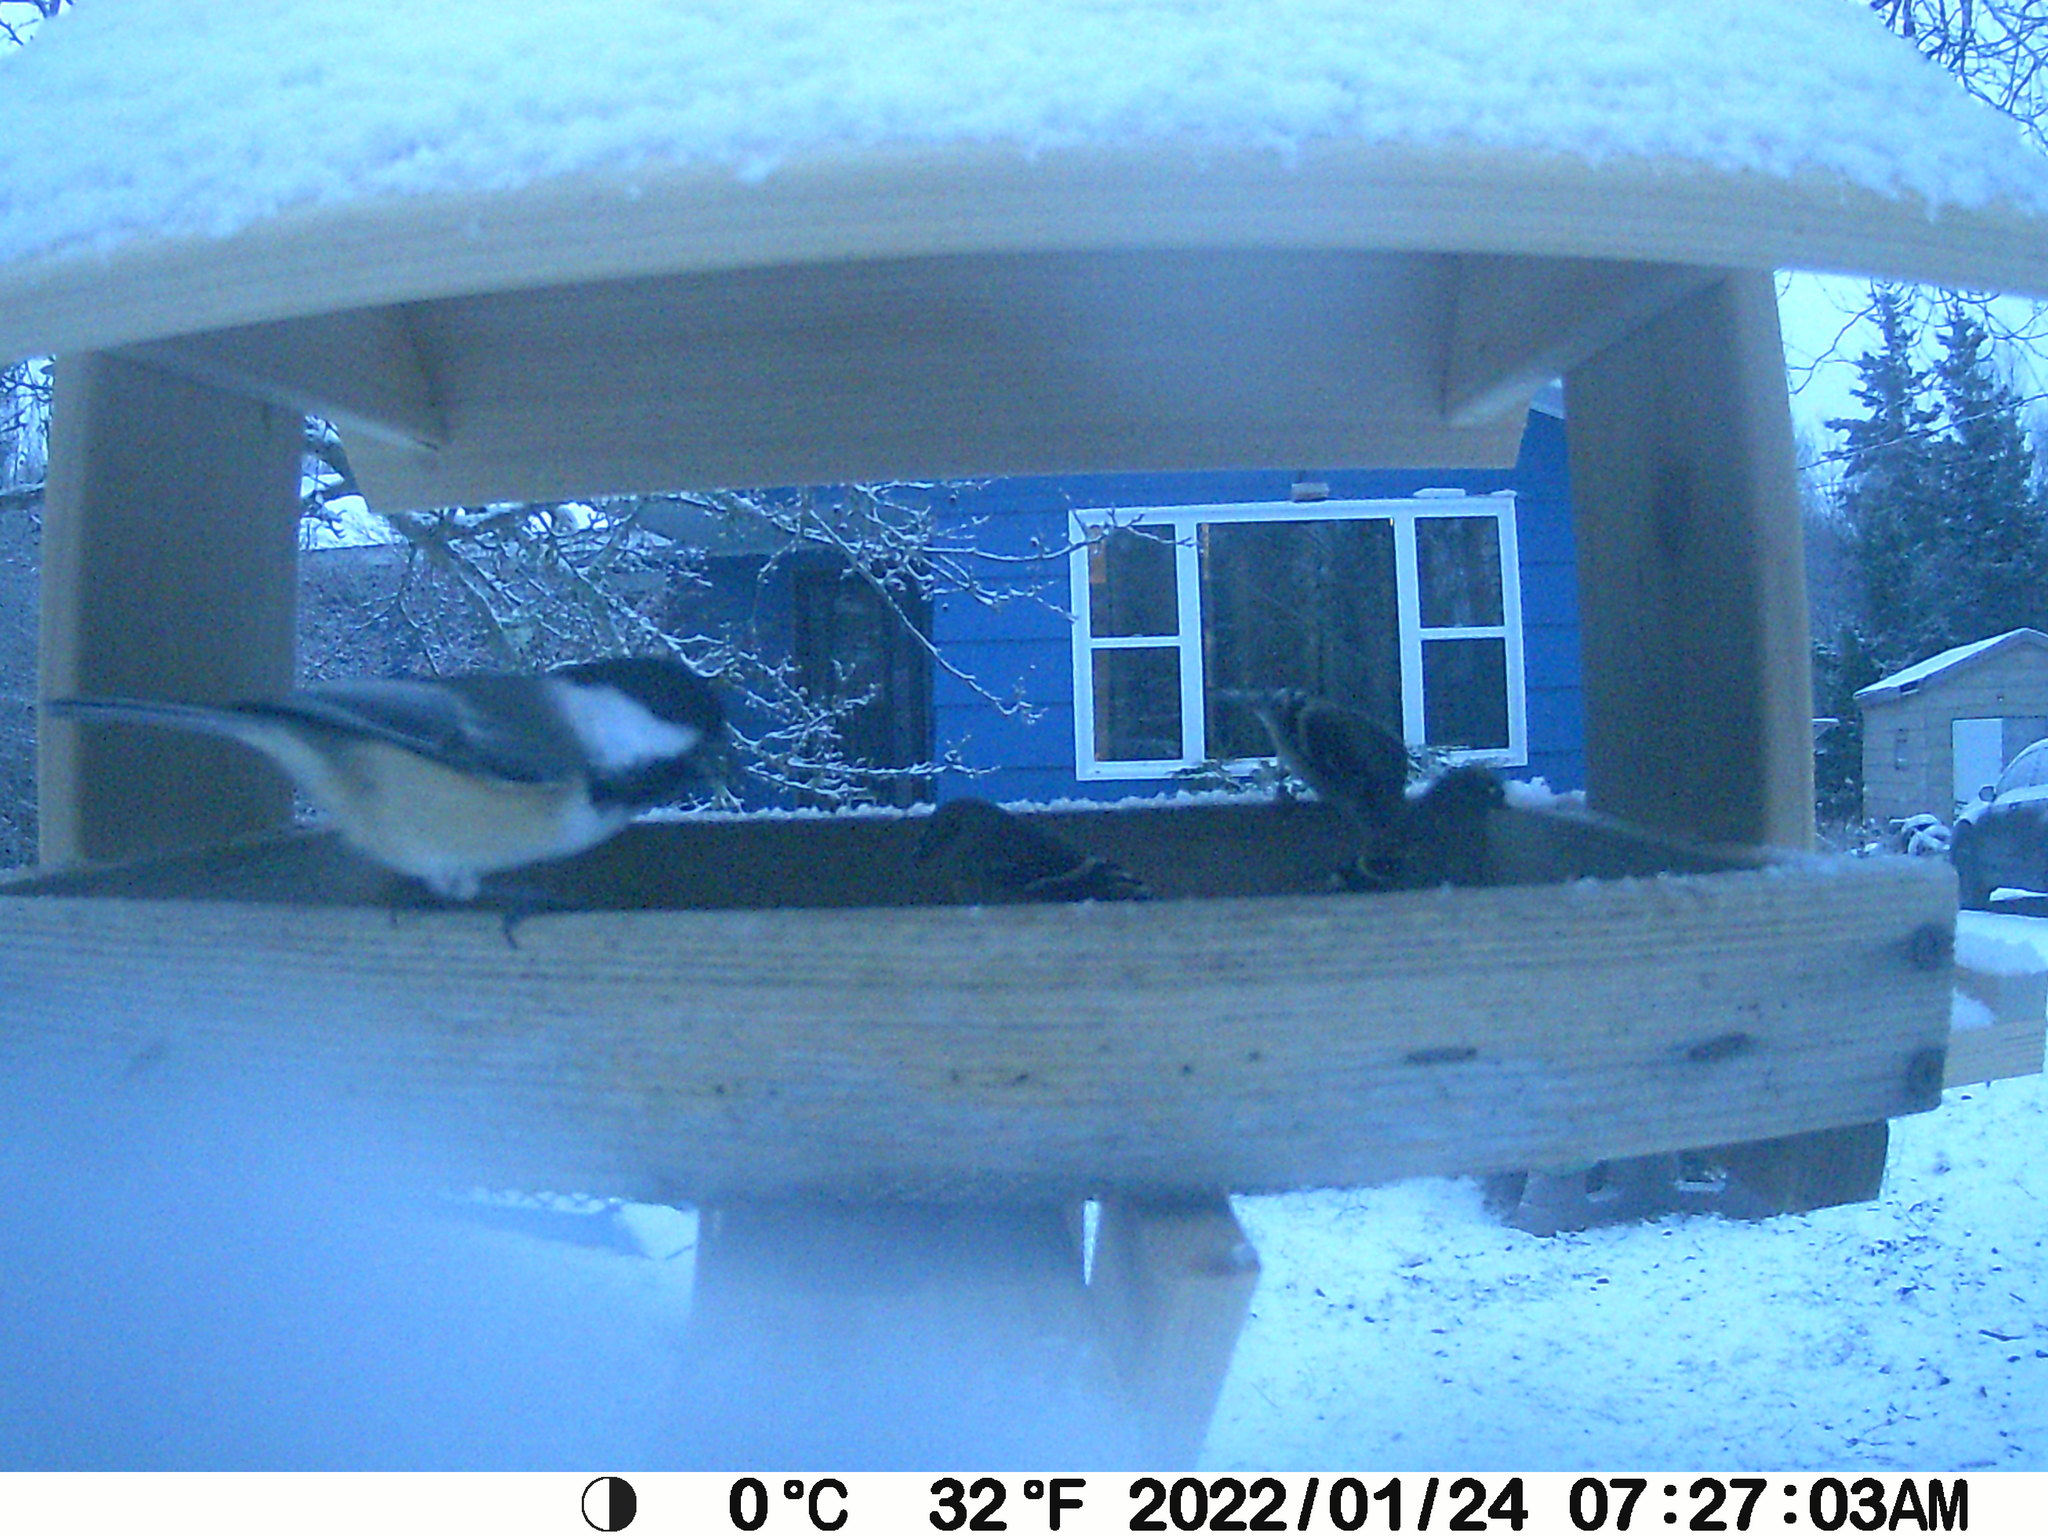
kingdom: Animalia
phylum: Chordata
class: Aves
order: Passeriformes
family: Paridae
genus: Poecile
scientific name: Poecile atricapillus
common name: Black-capped chickadee
